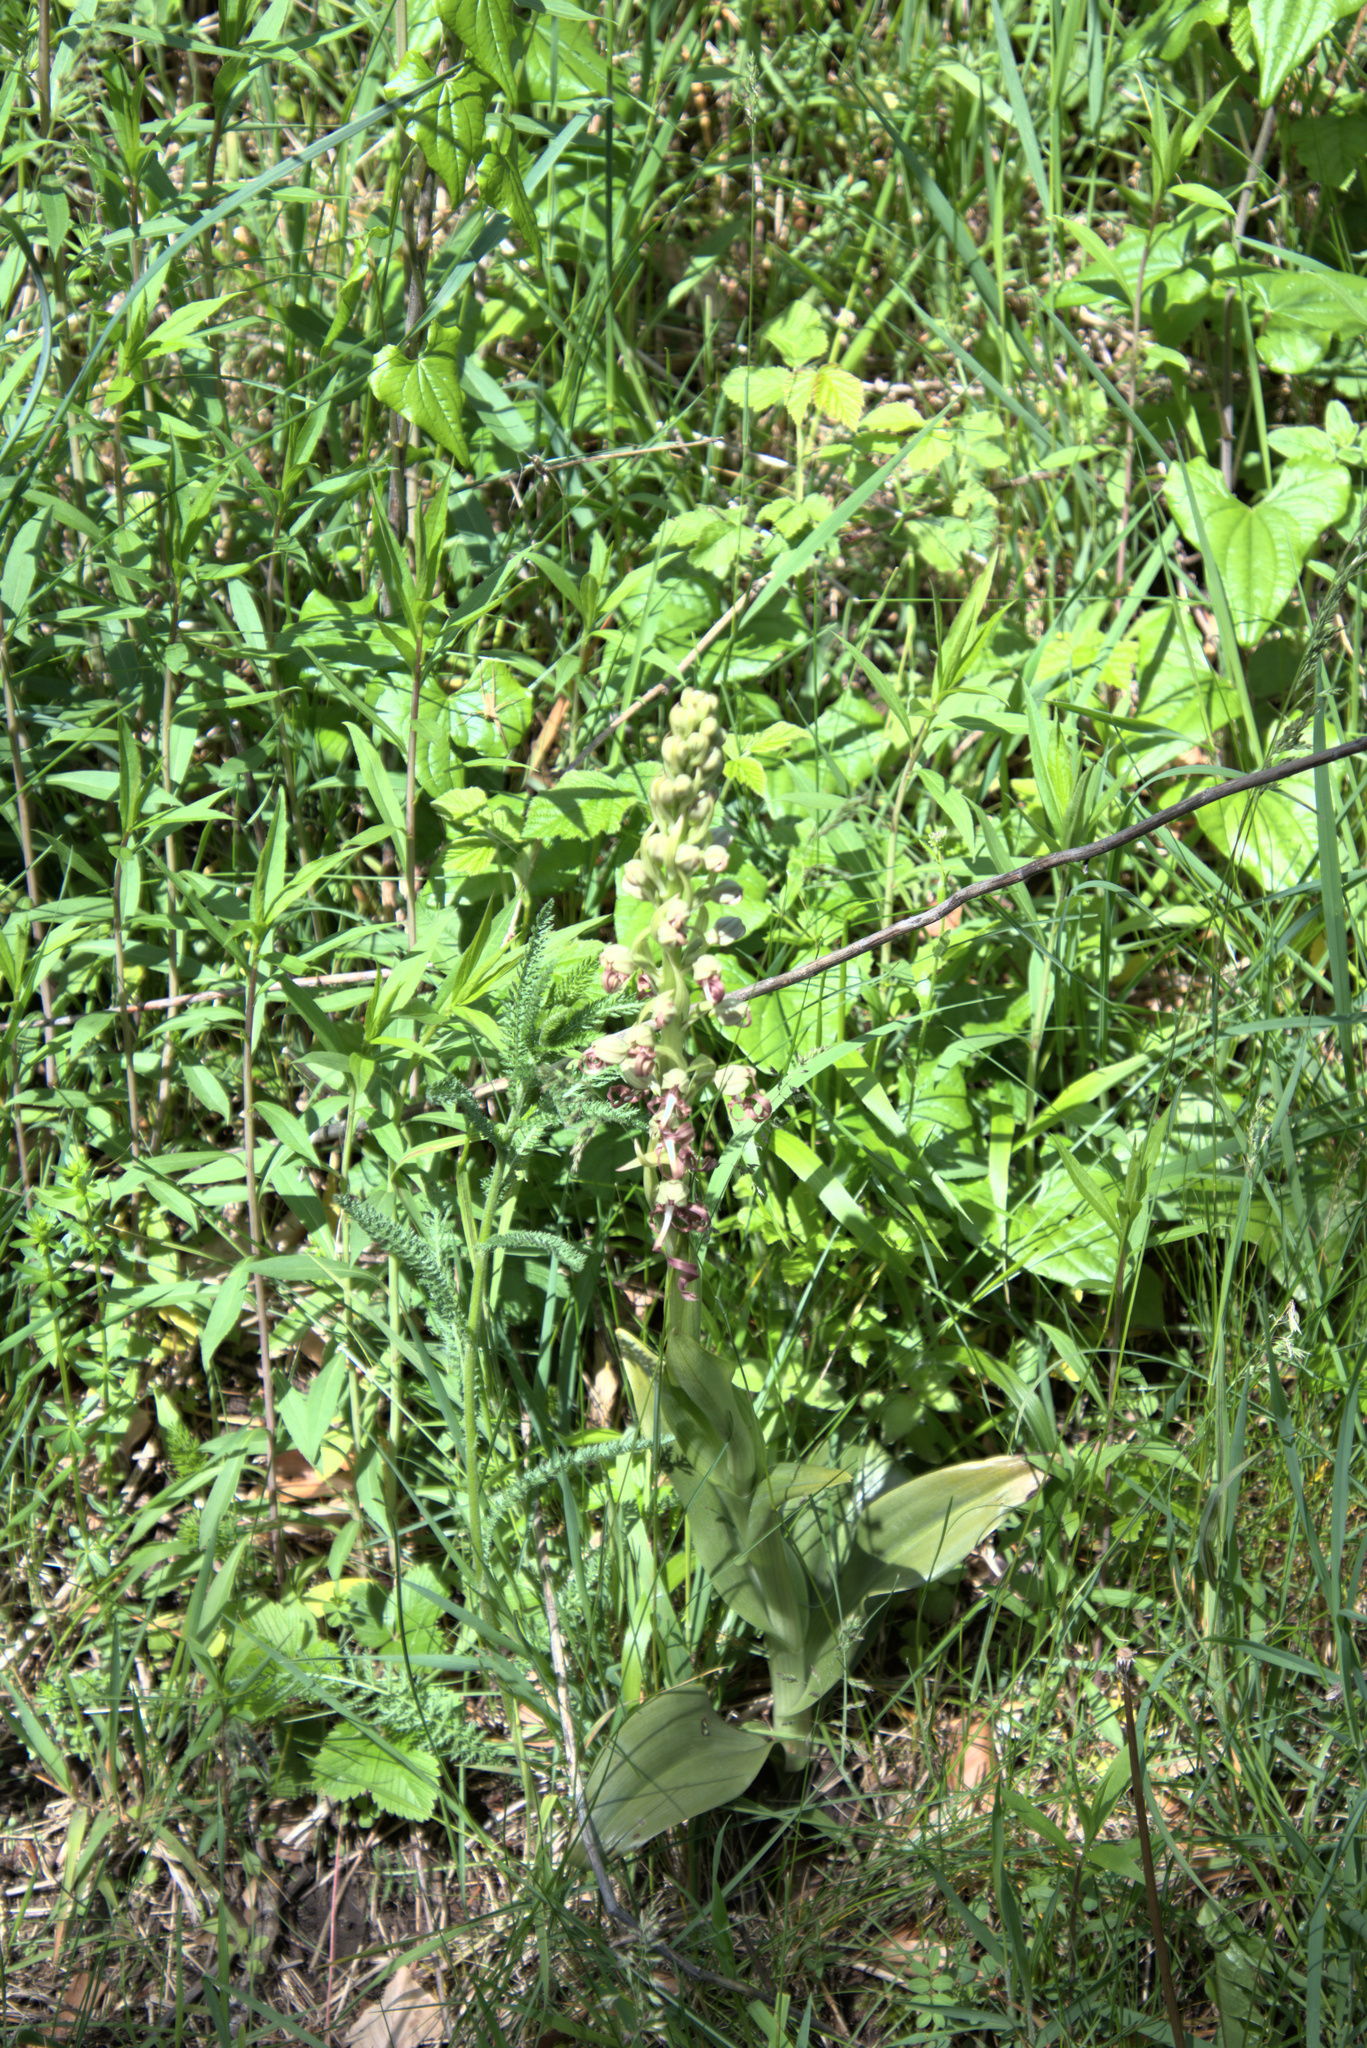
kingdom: Plantae
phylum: Tracheophyta
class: Liliopsida
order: Asparagales
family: Orchidaceae
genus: Himantoglossum
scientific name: Himantoglossum hircinum
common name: Lizard orchid
